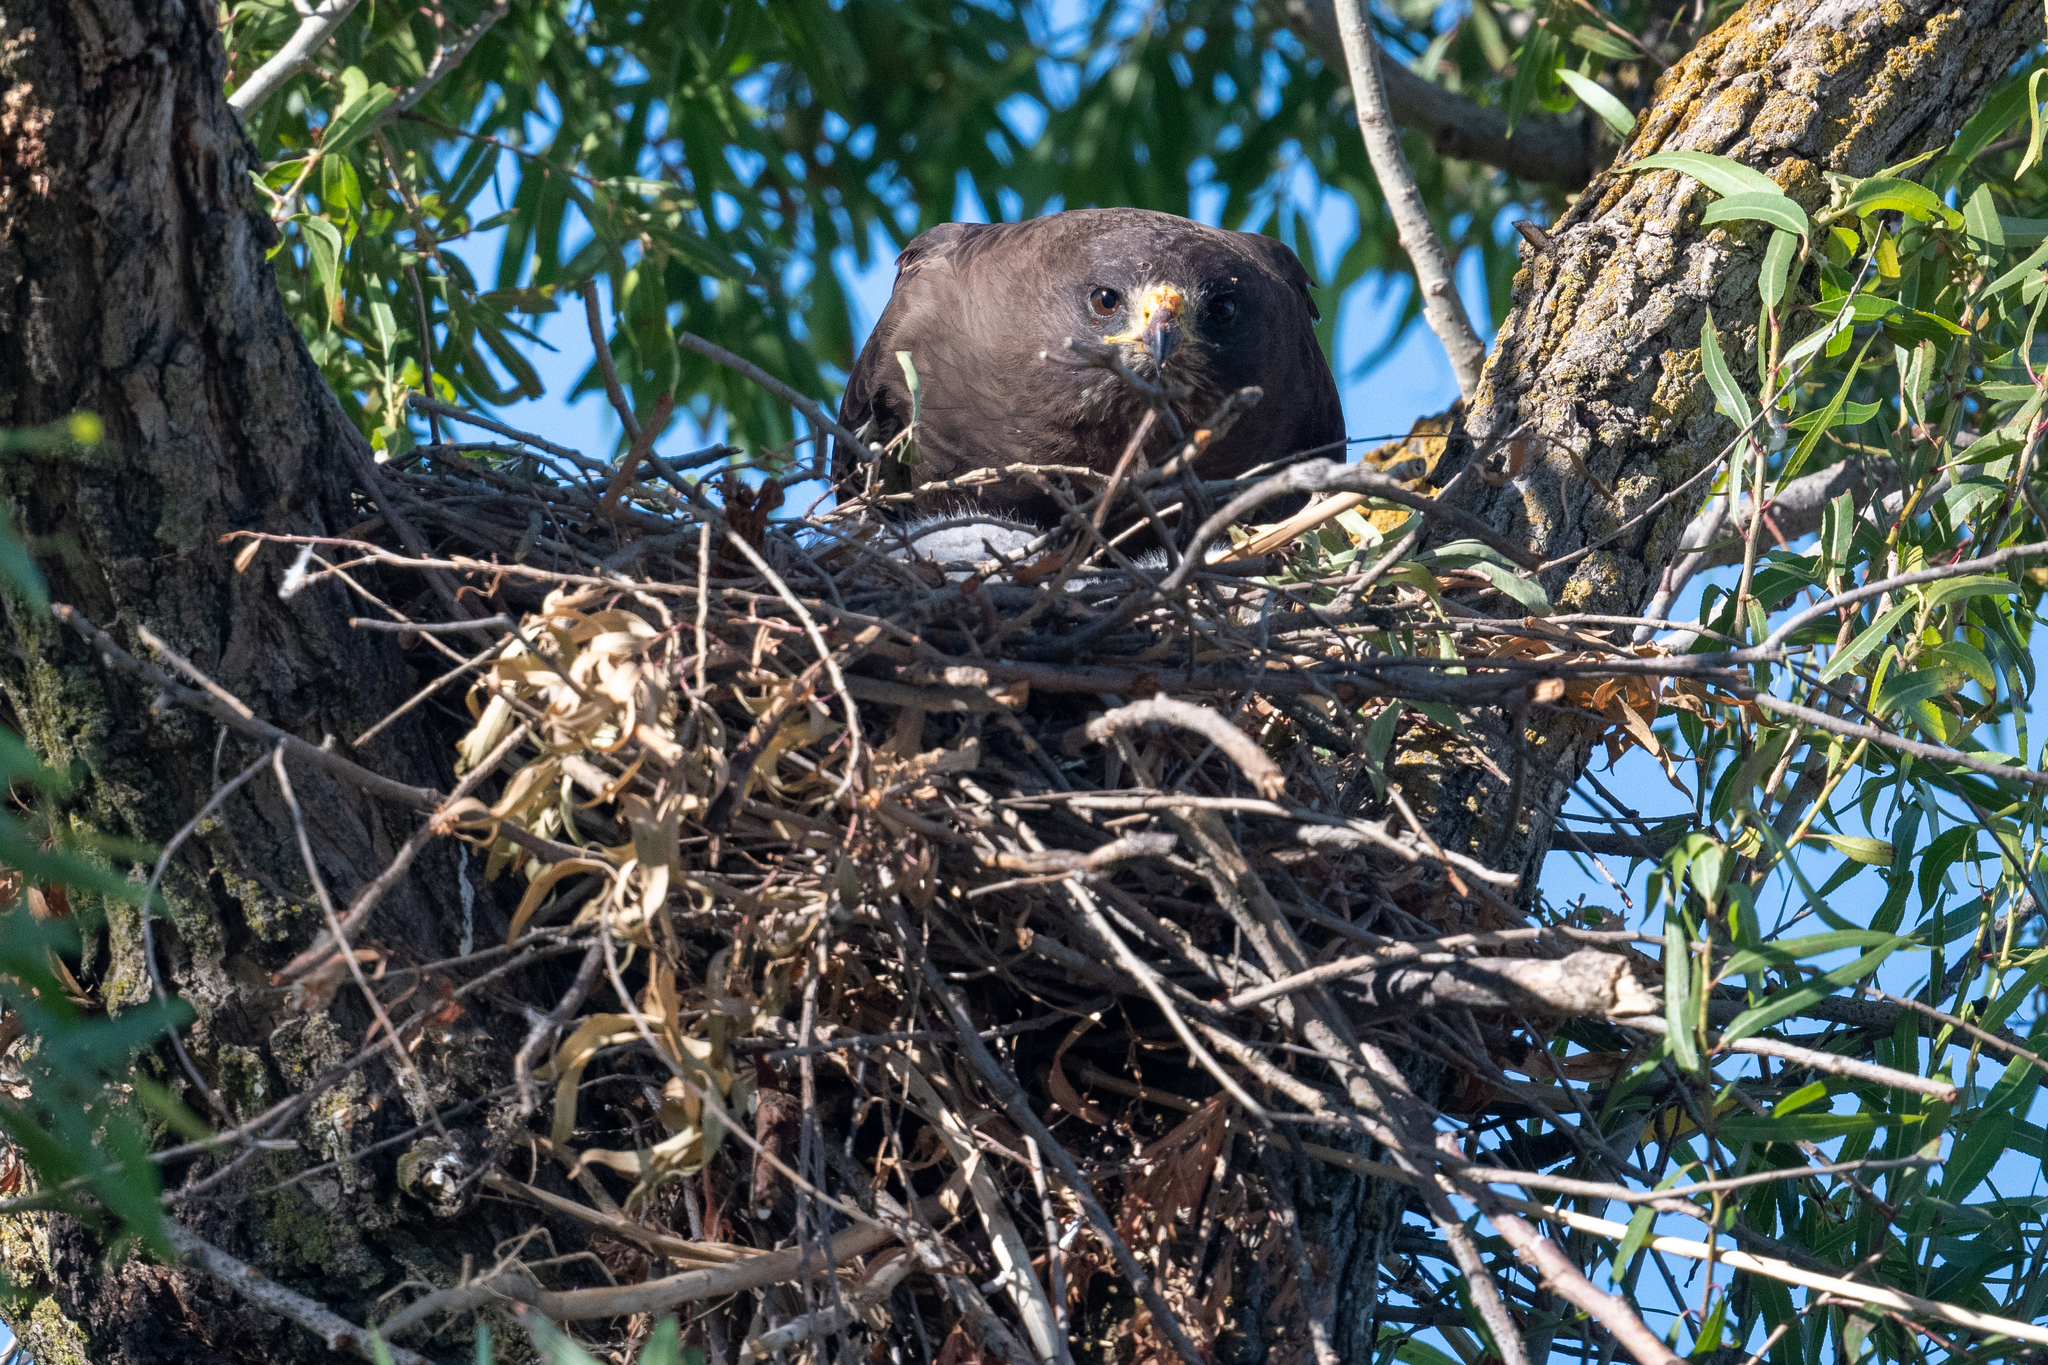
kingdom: Animalia
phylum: Chordata
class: Aves
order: Accipitriformes
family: Accipitridae
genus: Buteo
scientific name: Buteo swainsoni
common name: Swainson's hawk
